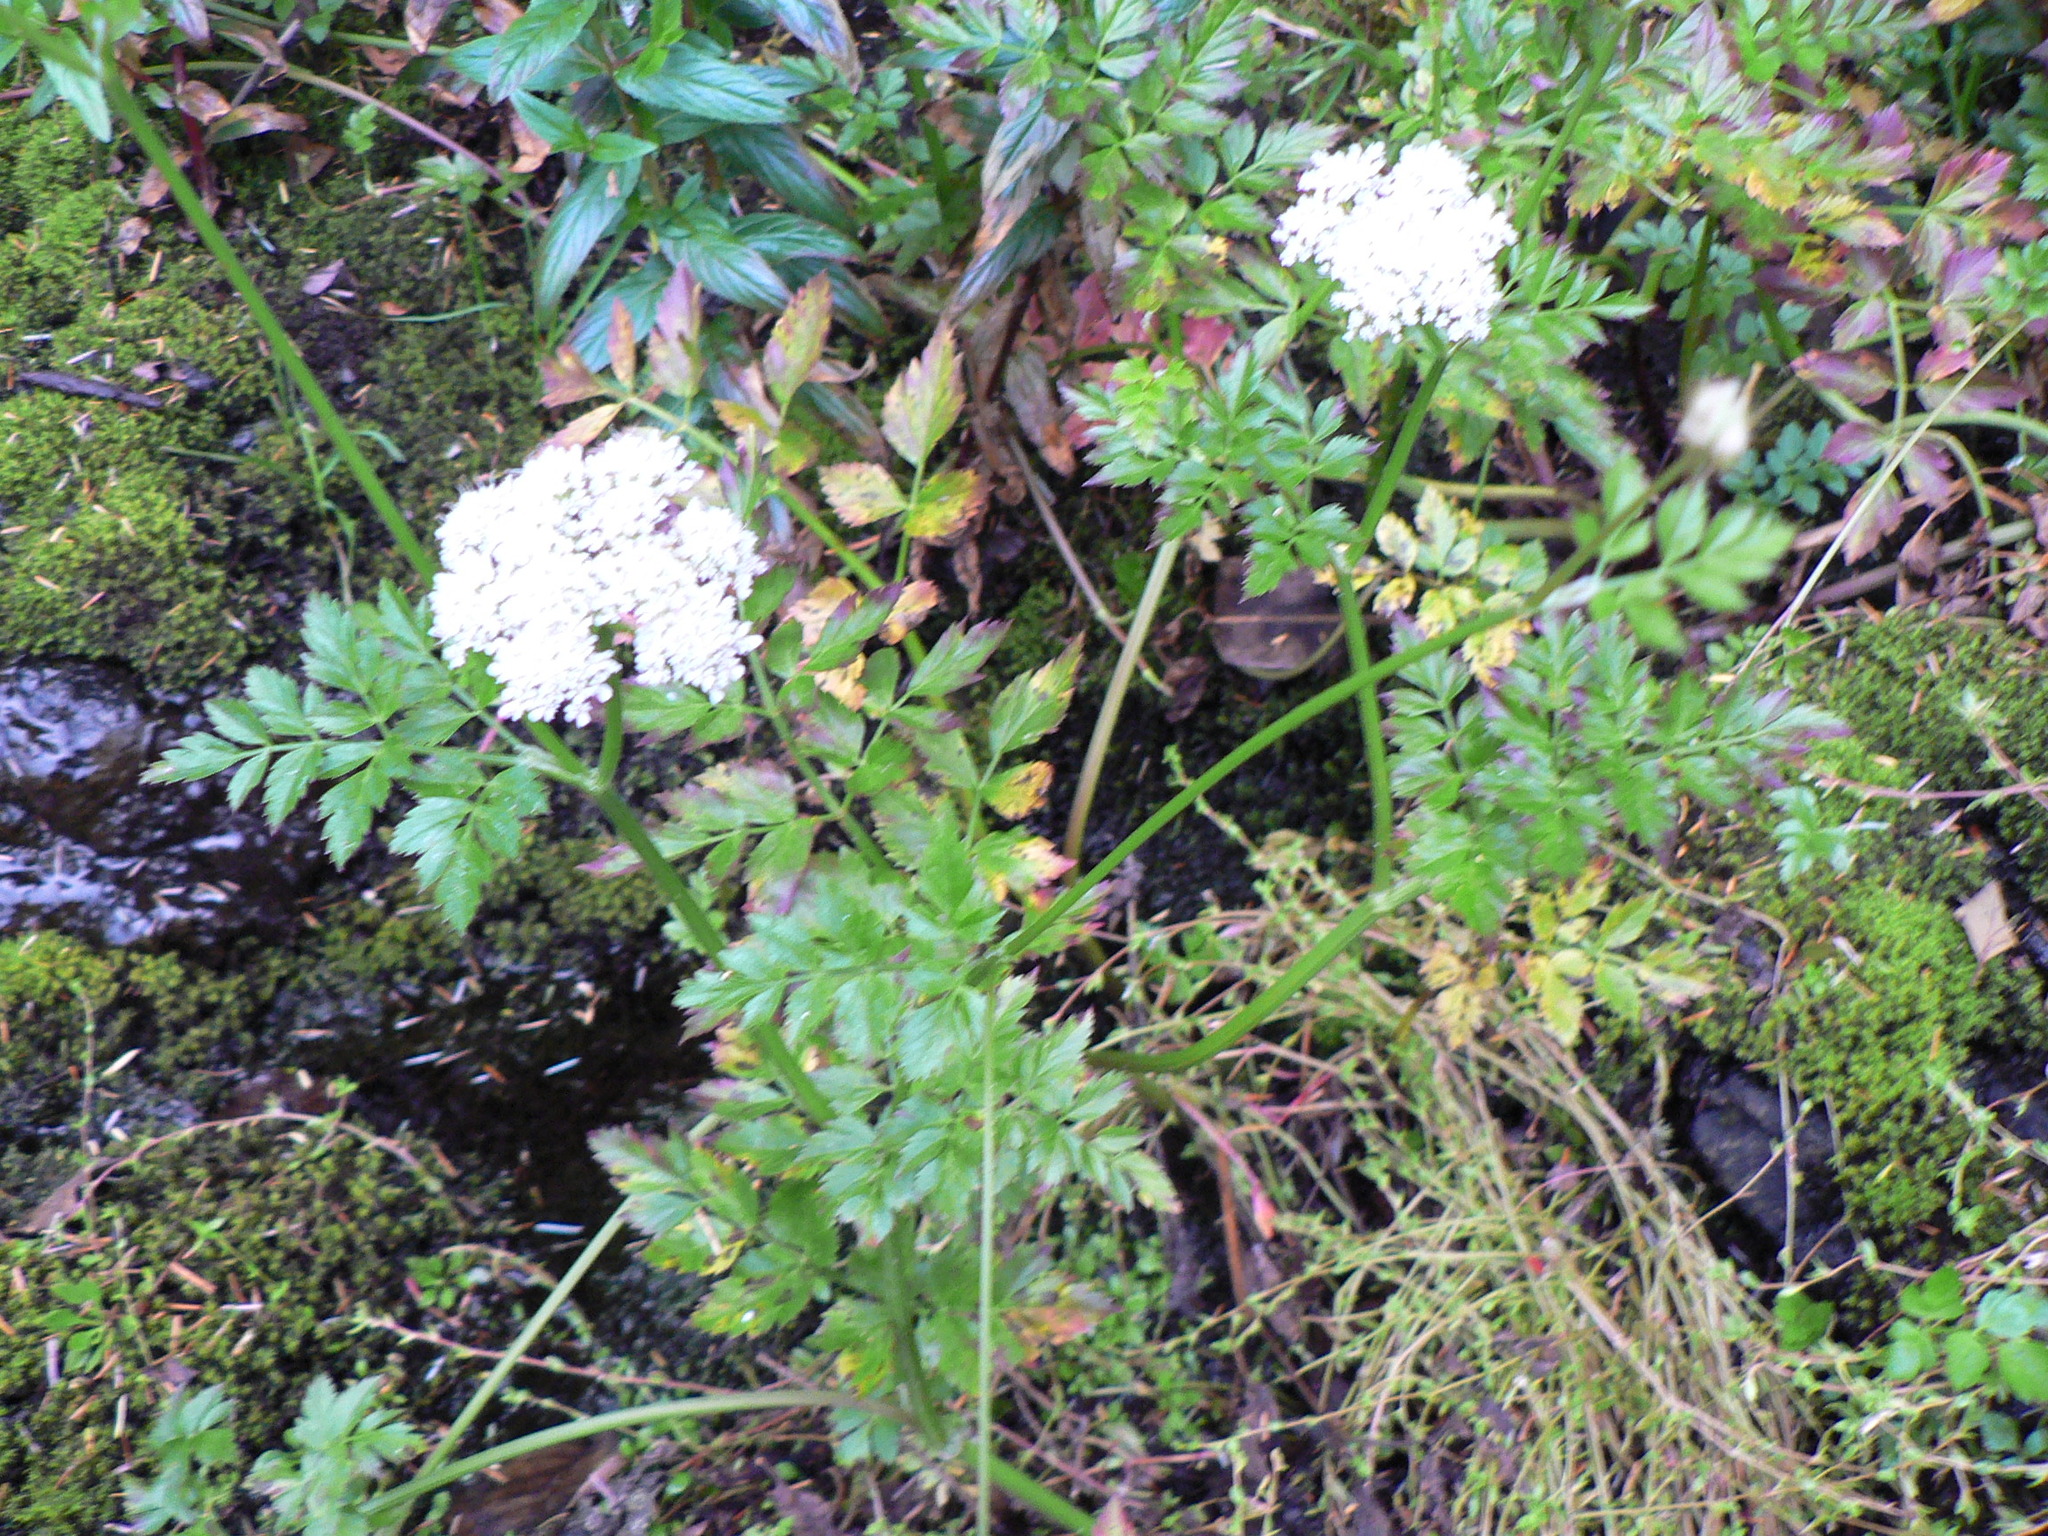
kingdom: Plantae
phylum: Tracheophyta
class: Magnoliopsida
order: Apiales
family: Apiaceae
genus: Oenanthe
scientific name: Oenanthe sarmentosa
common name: American water-parsley
